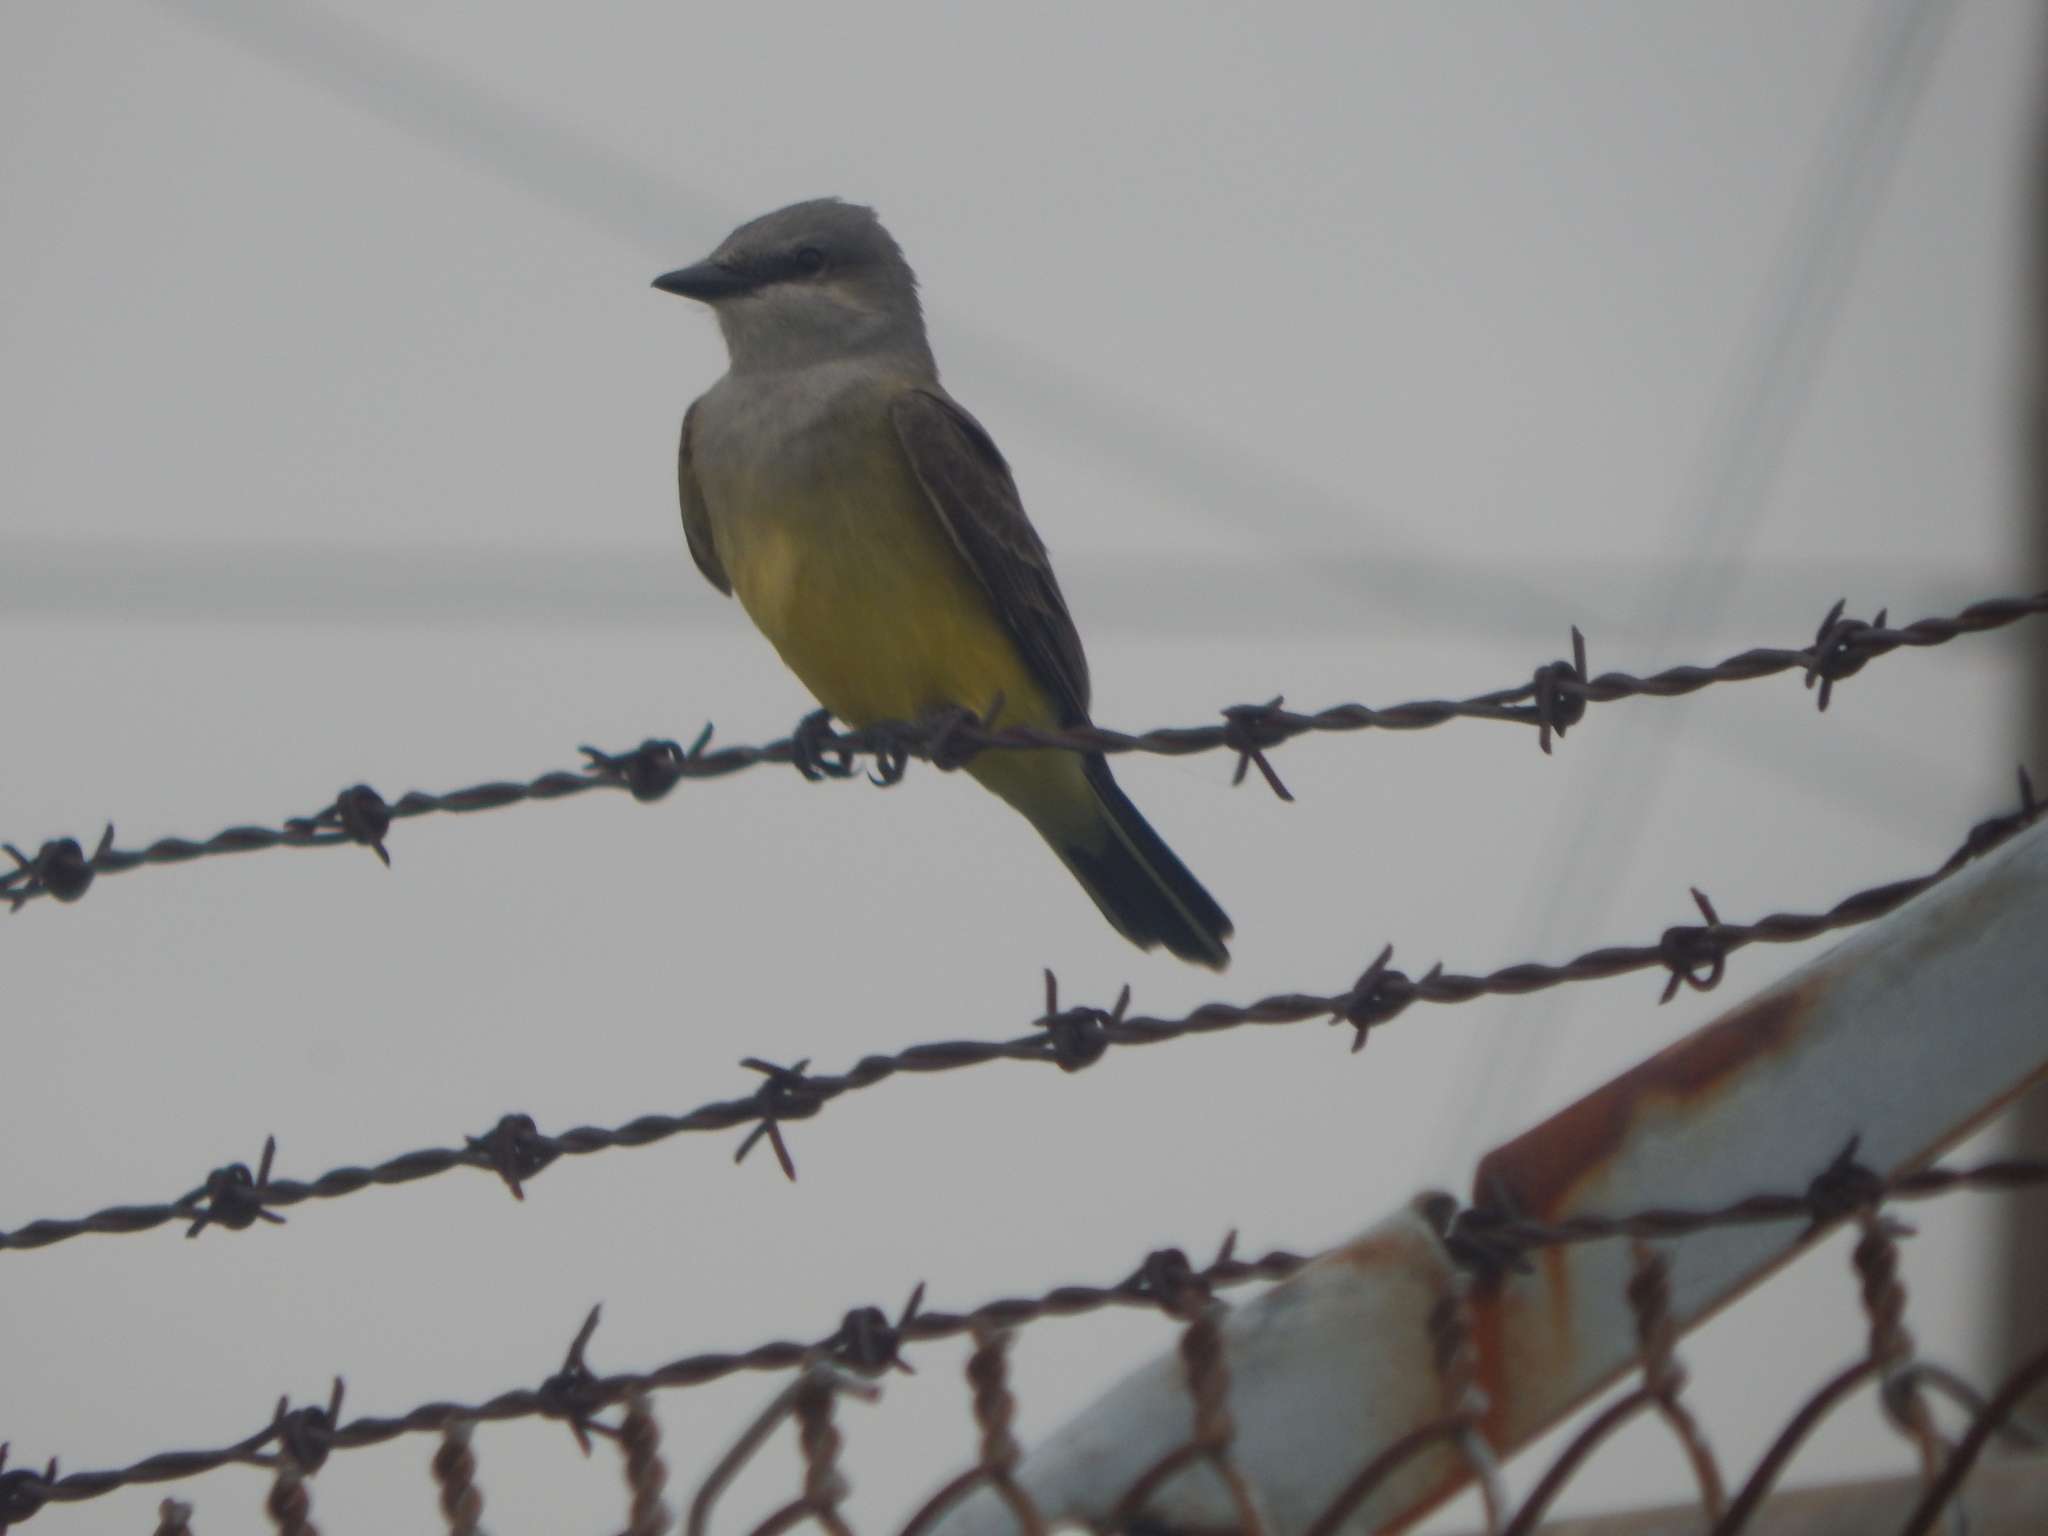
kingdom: Animalia
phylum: Chordata
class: Aves
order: Passeriformes
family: Tyrannidae
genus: Tyrannus
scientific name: Tyrannus verticalis
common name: Western kingbird
